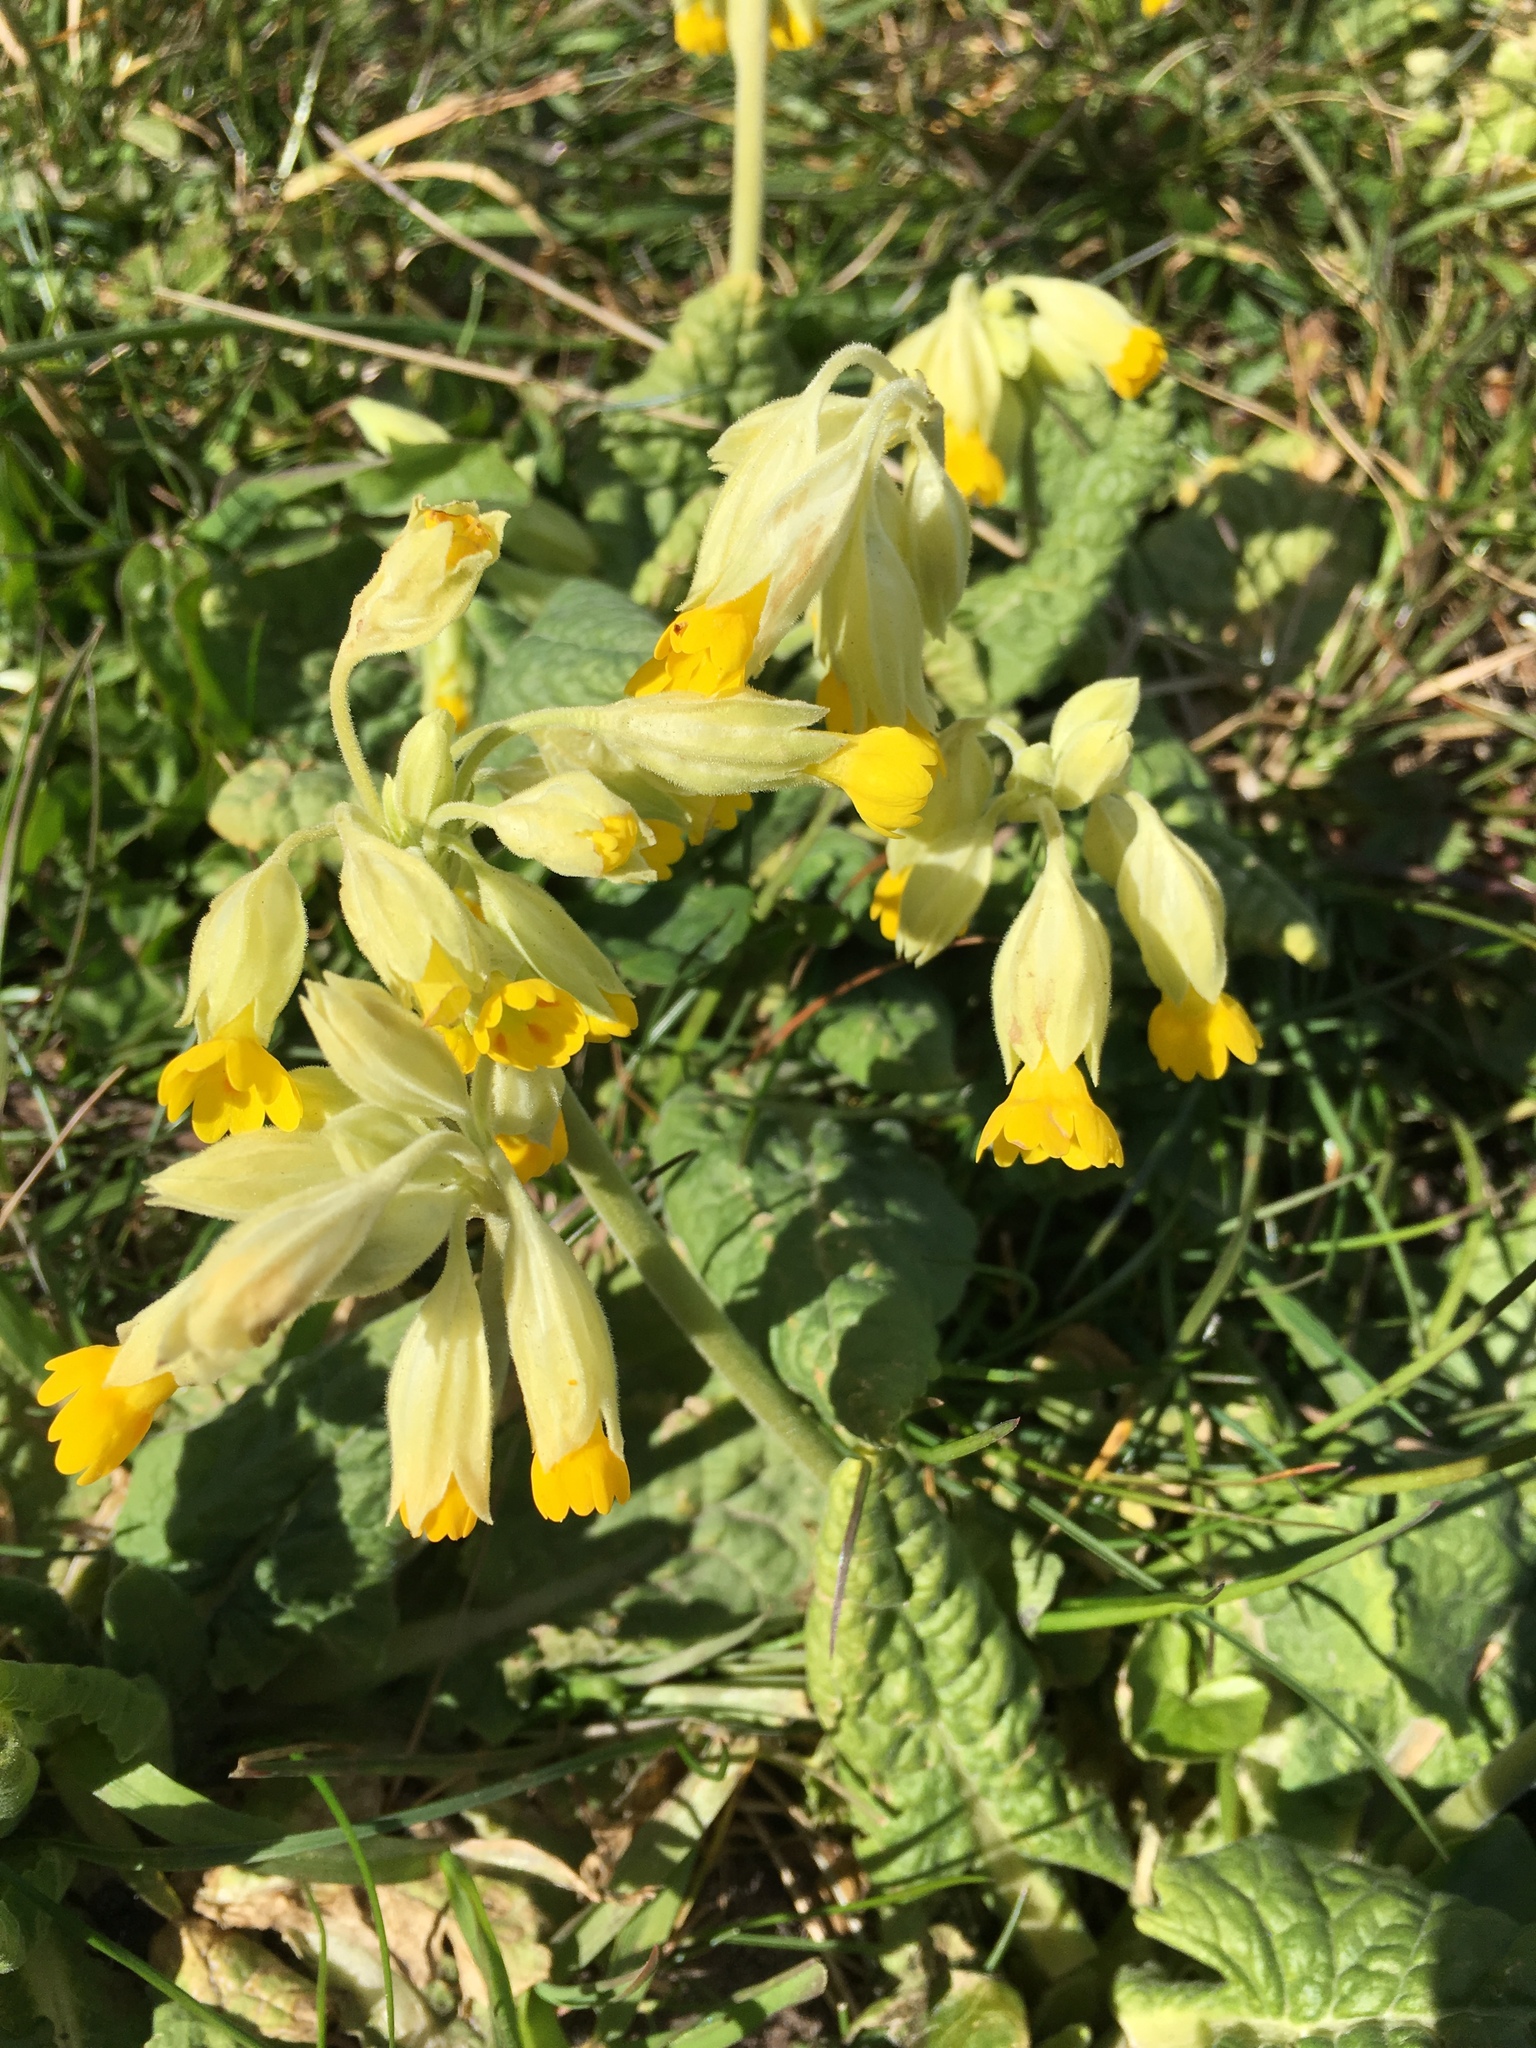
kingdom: Plantae
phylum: Tracheophyta
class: Magnoliopsida
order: Ericales
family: Primulaceae
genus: Primula
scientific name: Primula veris
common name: Cowslip
